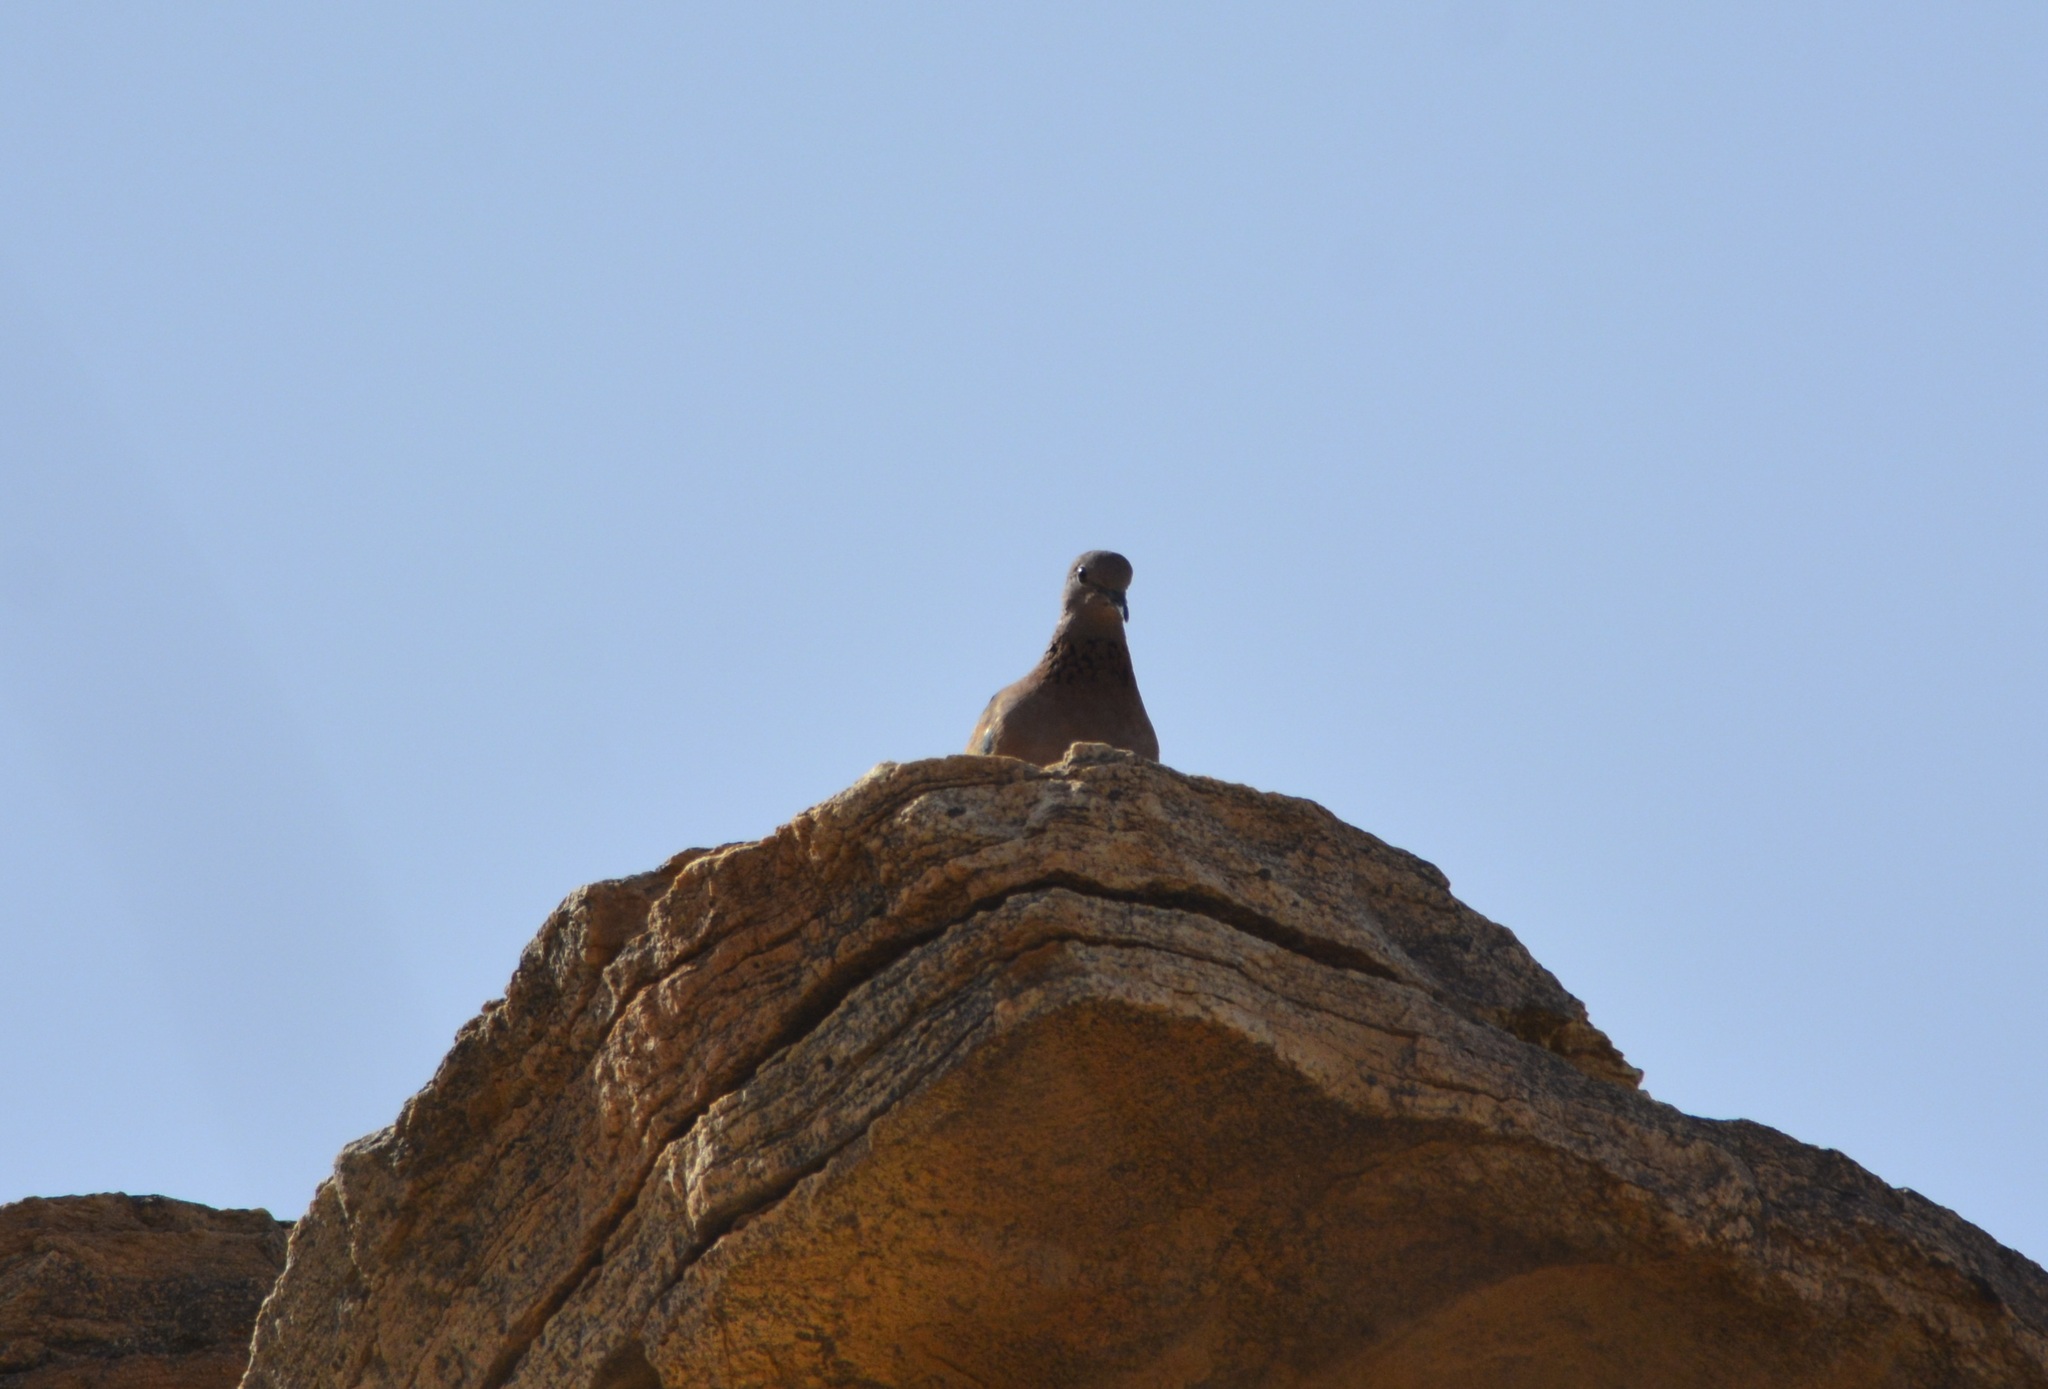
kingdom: Animalia
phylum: Chordata
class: Aves
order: Columbiformes
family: Columbidae
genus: Spilopelia
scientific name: Spilopelia senegalensis
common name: Laughing dove
